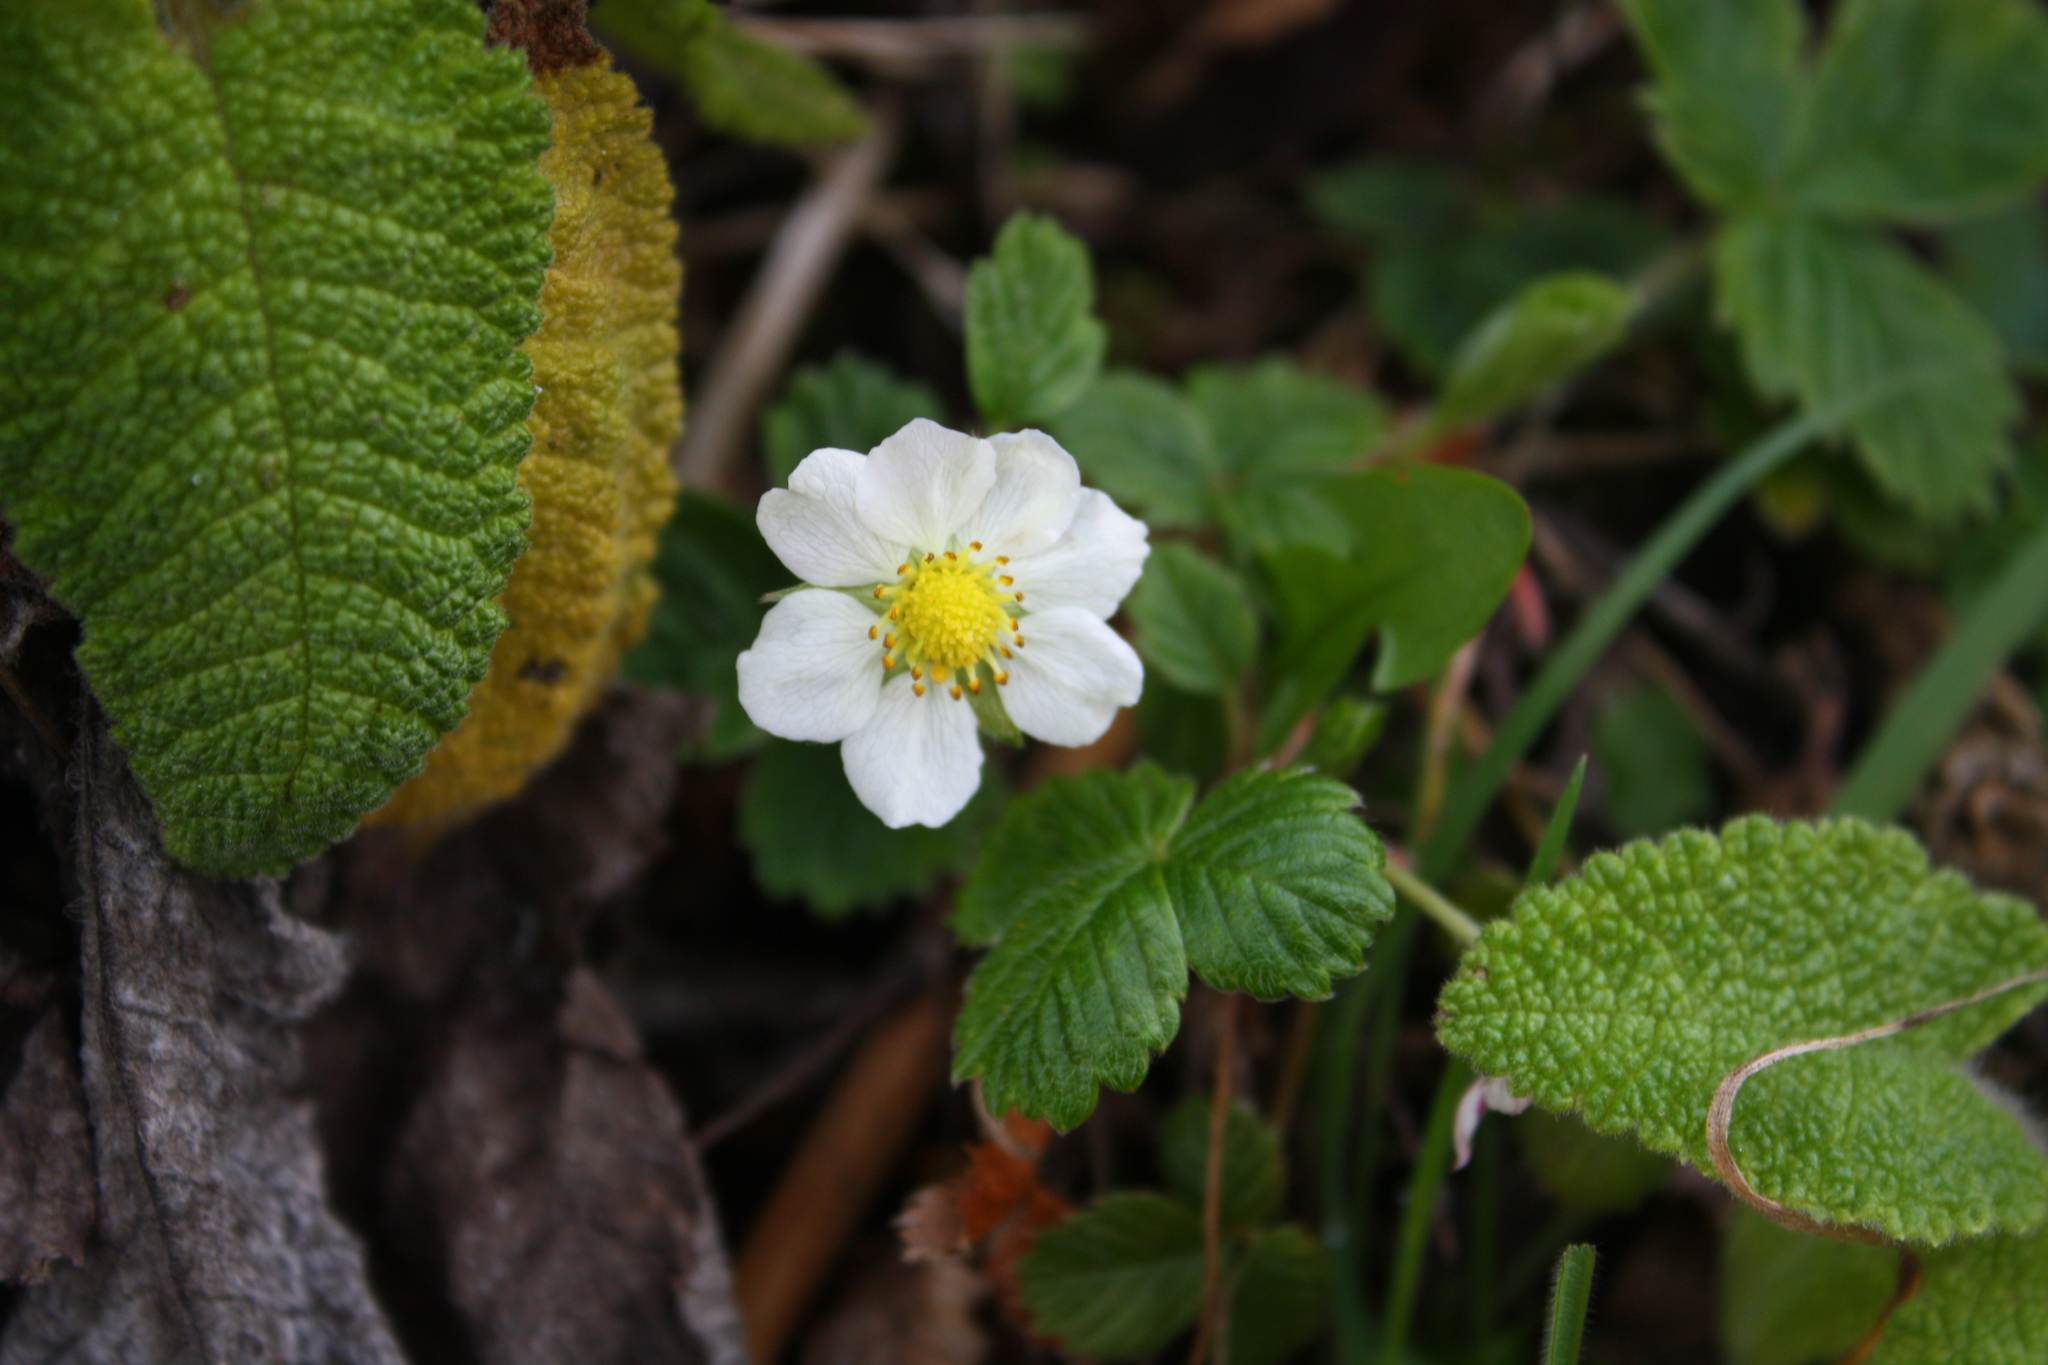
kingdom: Plantae
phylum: Tracheophyta
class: Magnoliopsida
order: Rosales
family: Rosaceae
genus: Fragaria
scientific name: Fragaria vesca
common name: Wild strawberry
